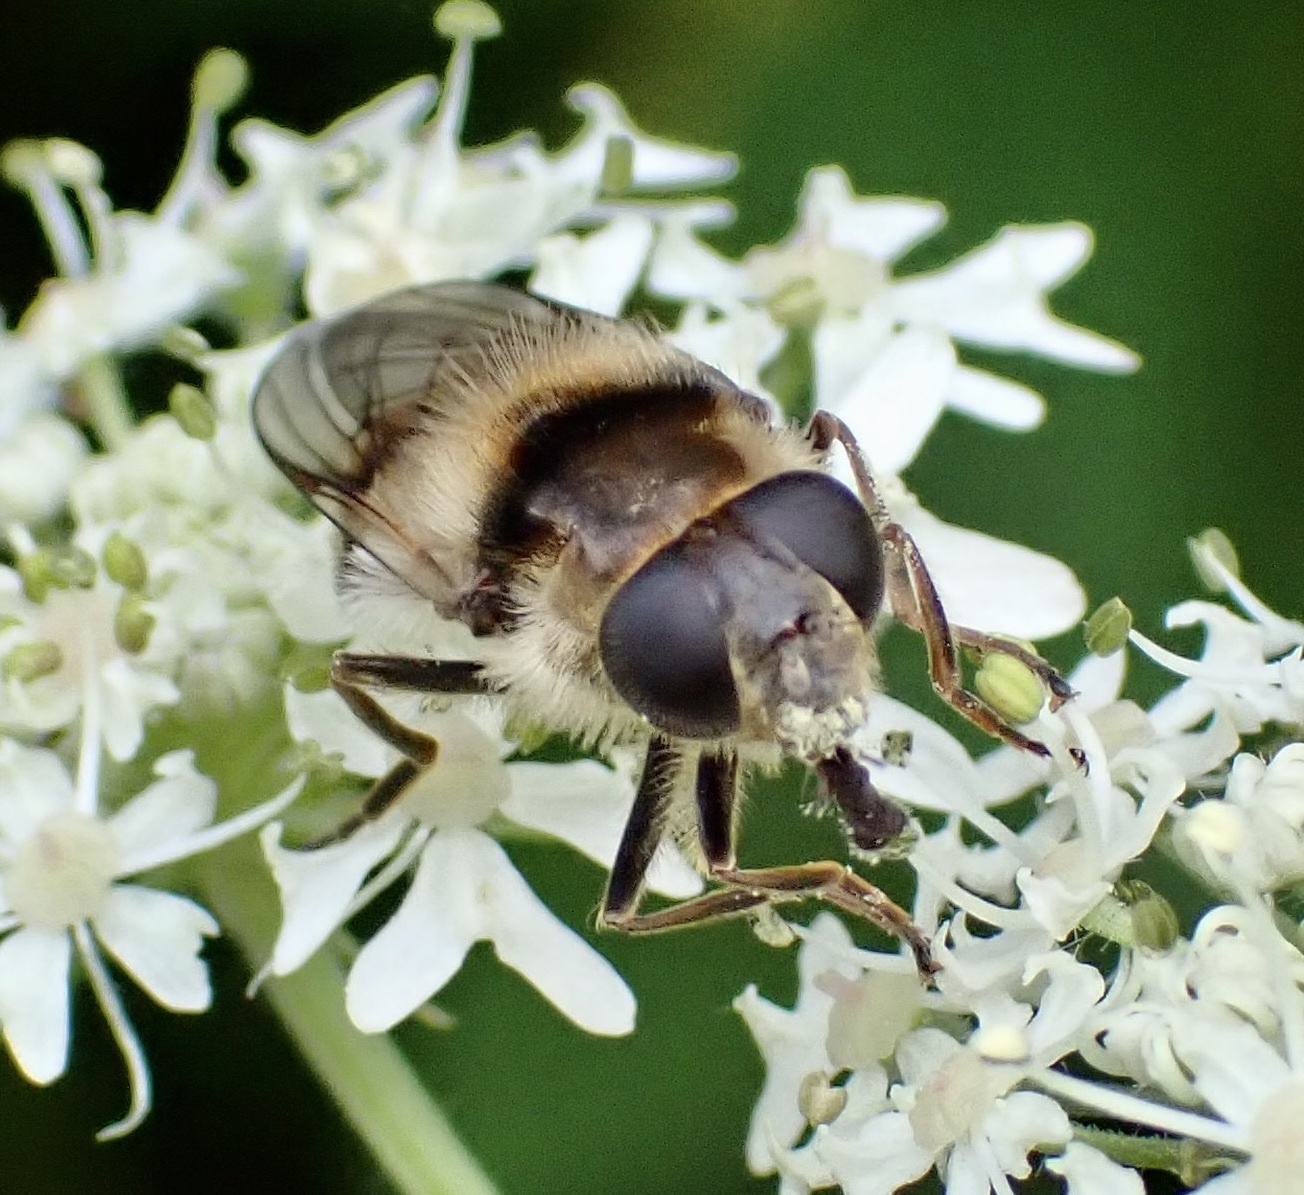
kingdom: Animalia
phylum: Arthropoda
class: Insecta
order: Diptera
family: Syrphidae
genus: Cheilosia
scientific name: Cheilosia illustrata
